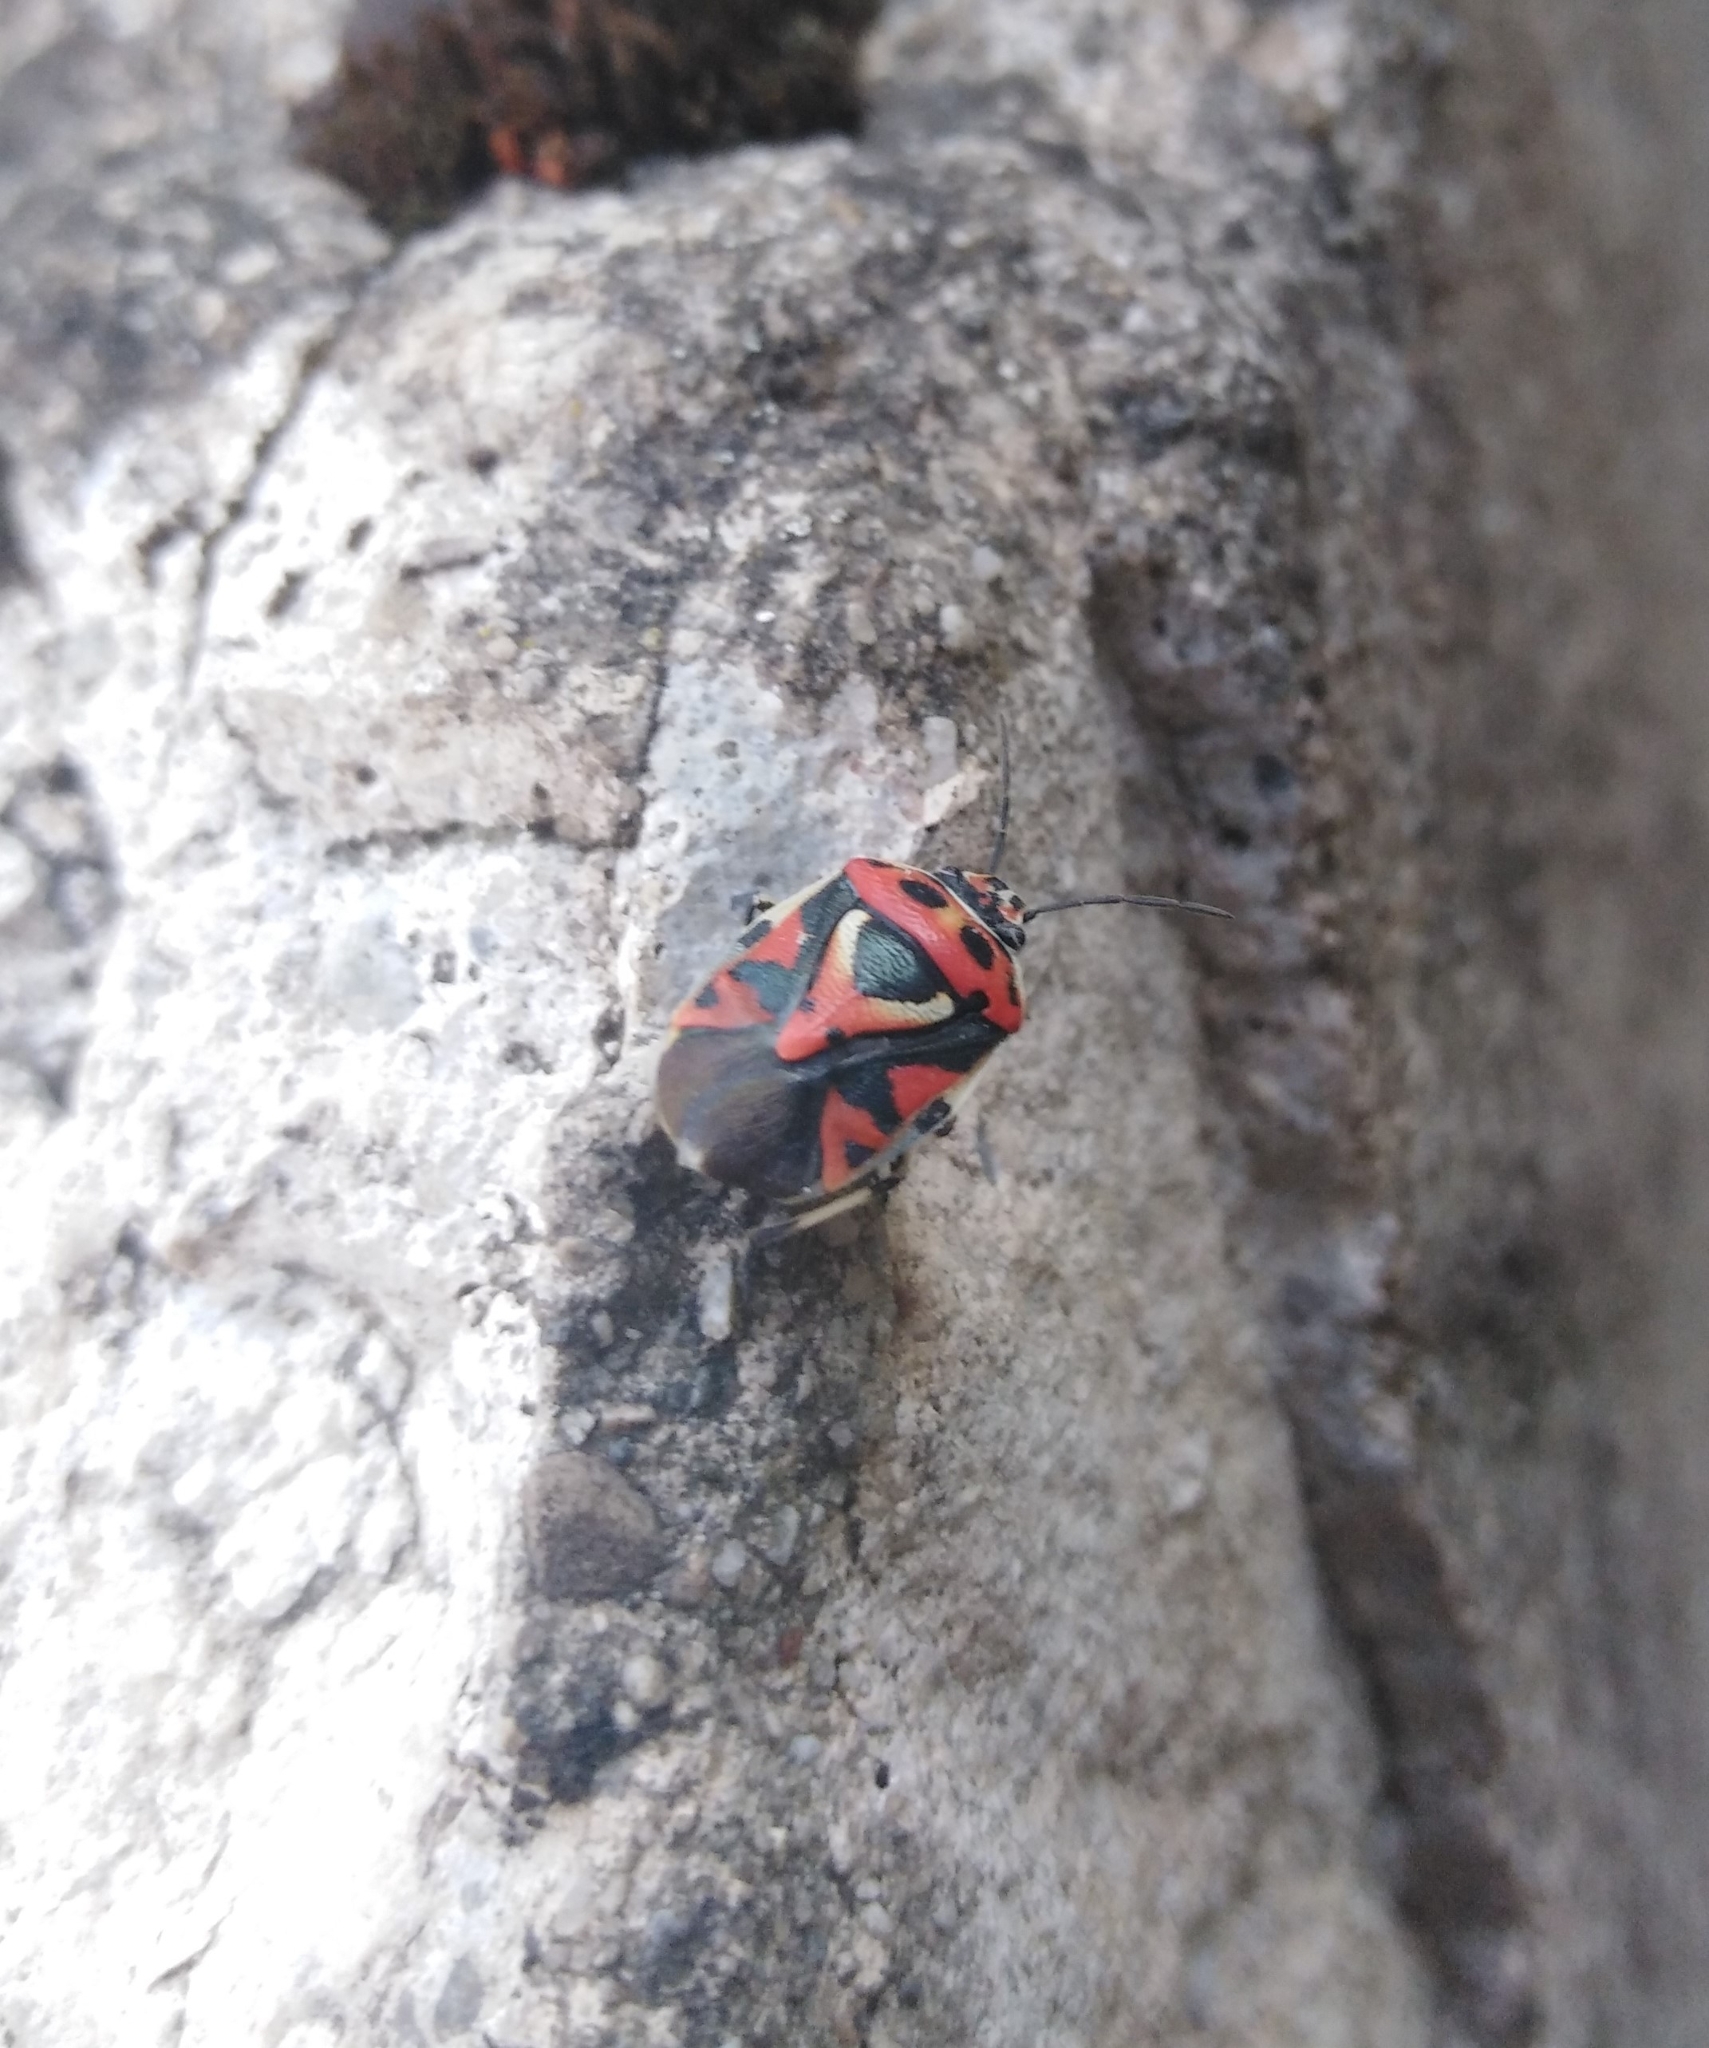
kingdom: Animalia
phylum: Arthropoda
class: Insecta
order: Hemiptera
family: Pentatomidae
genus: Eurydema
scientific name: Eurydema ornata
